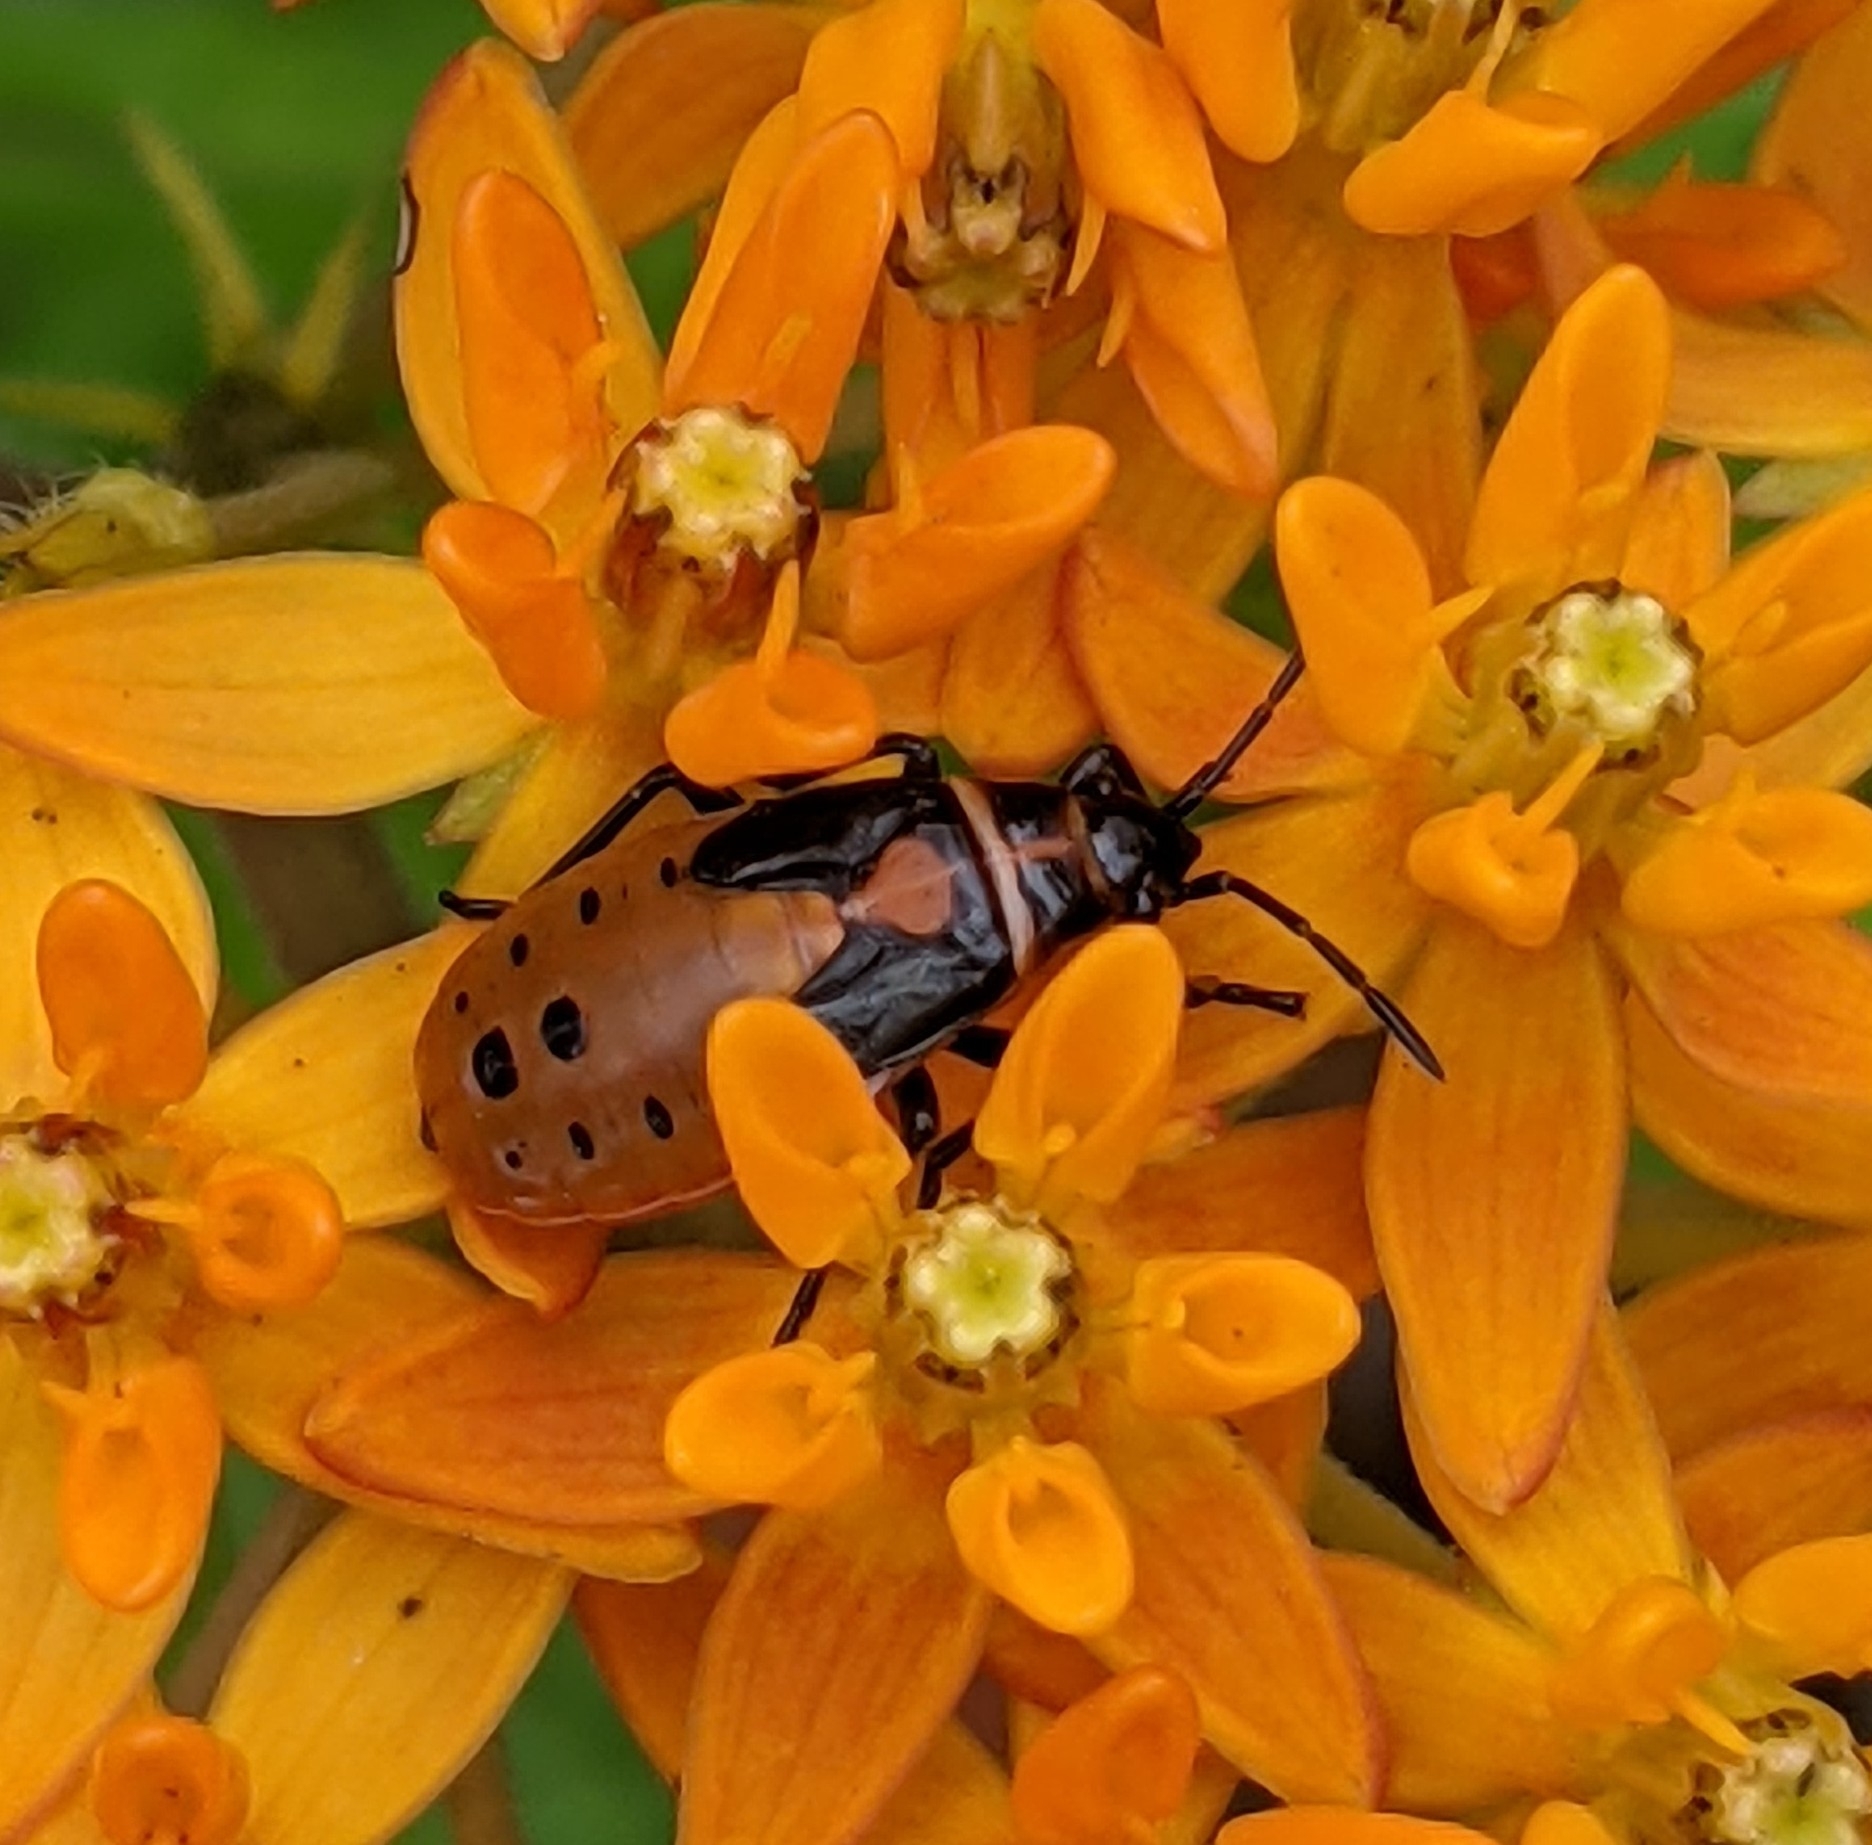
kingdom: Animalia
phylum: Arthropoda
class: Insecta
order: Hemiptera
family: Lygaeidae
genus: Lygaeus
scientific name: Lygaeus kalmii
